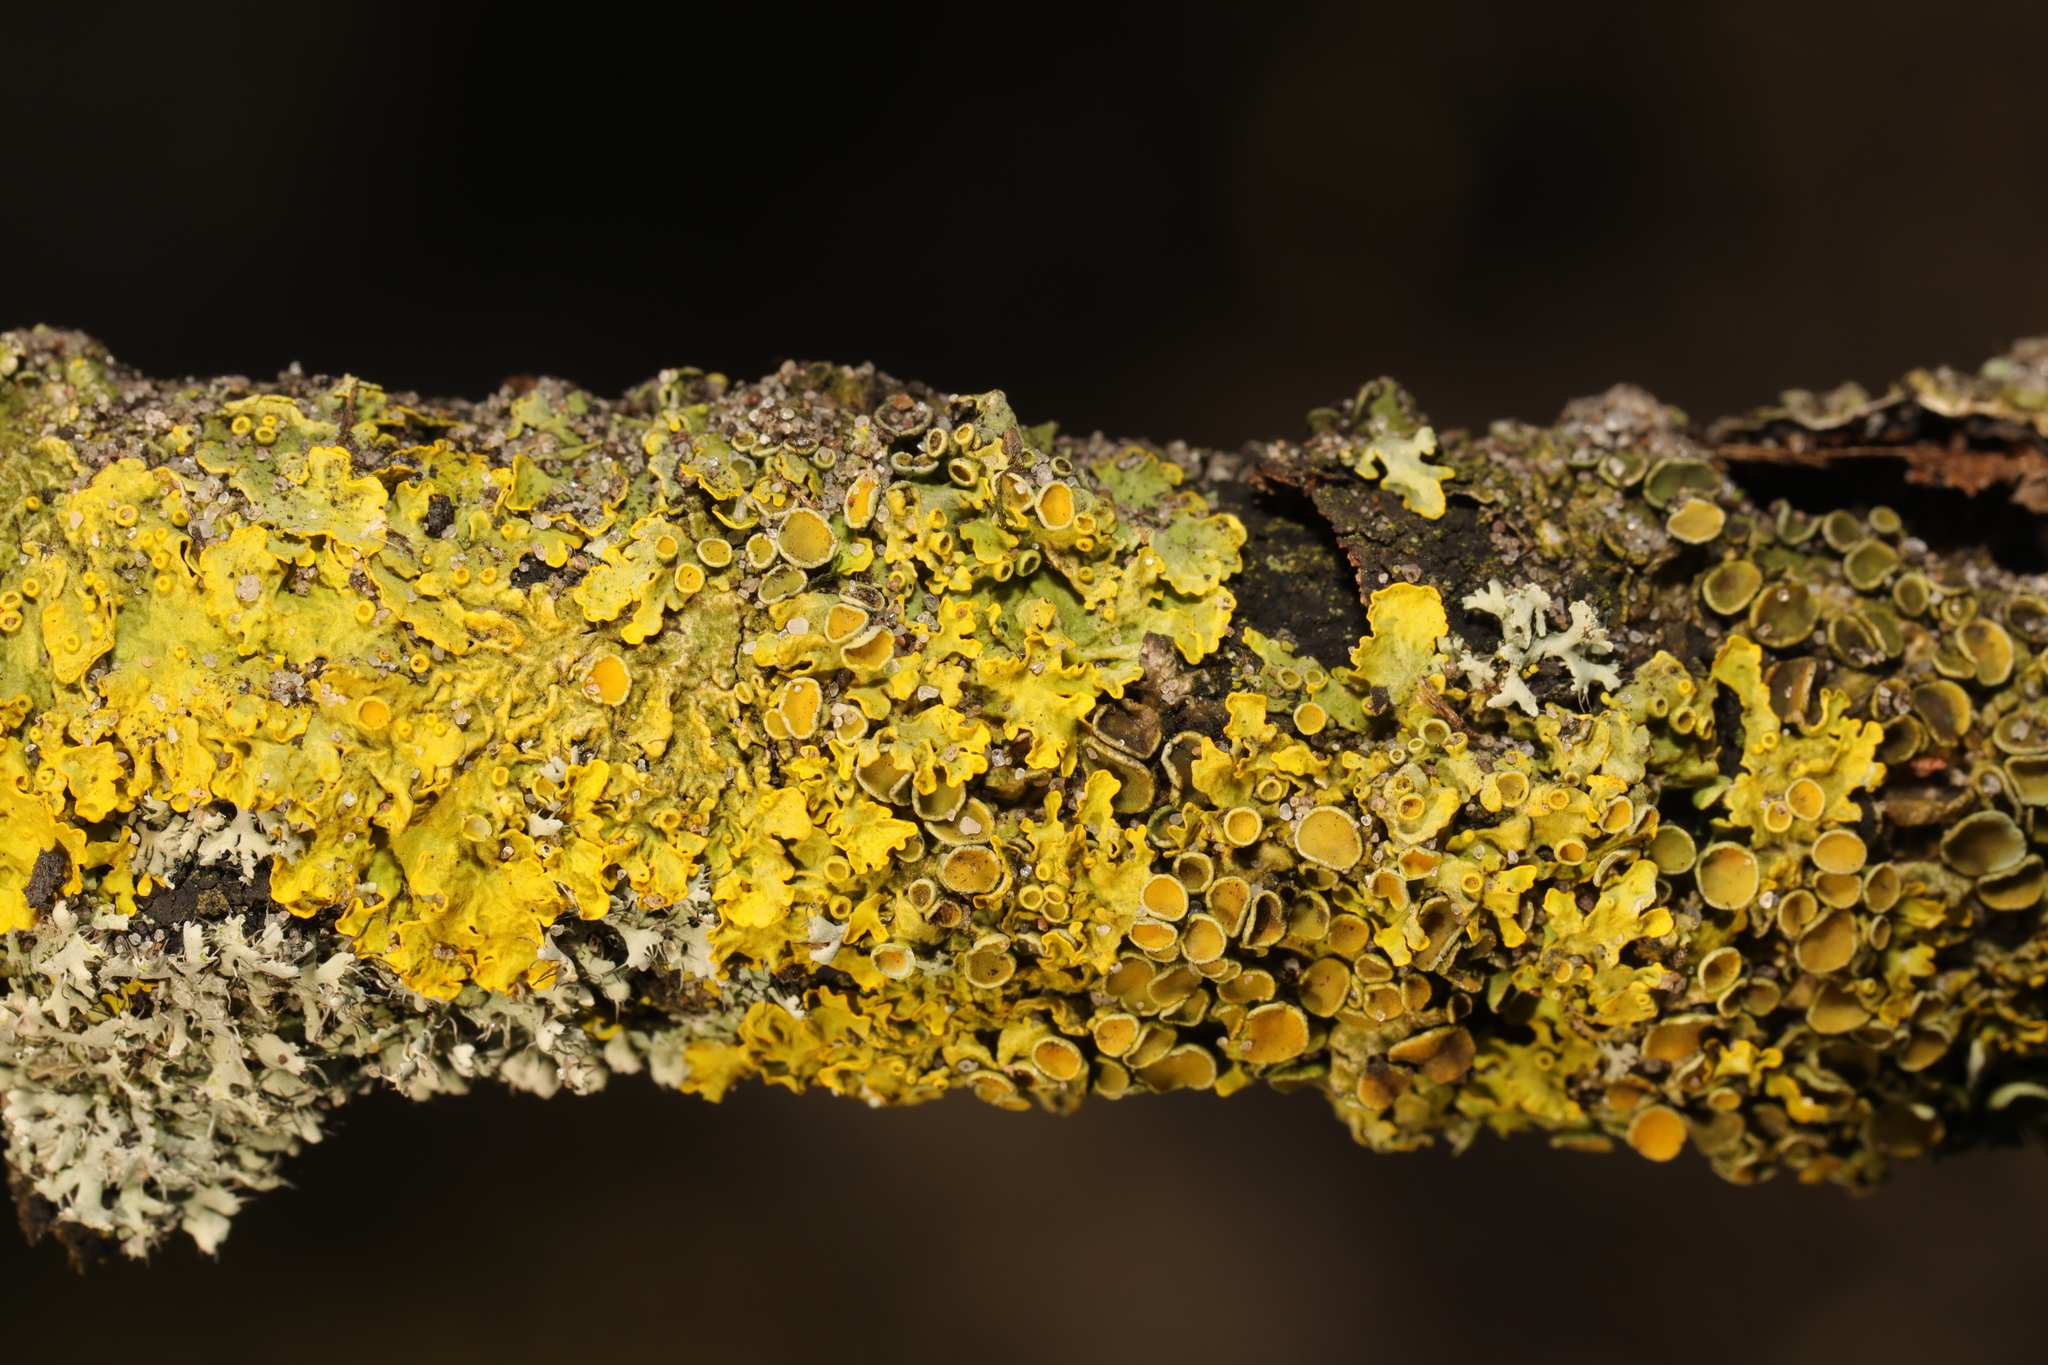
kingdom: Fungi
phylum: Ascomycota
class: Lecanoromycetes
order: Teloschistales
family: Teloschistaceae
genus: Xanthoria
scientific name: Xanthoria parietina
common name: Common orange lichen
